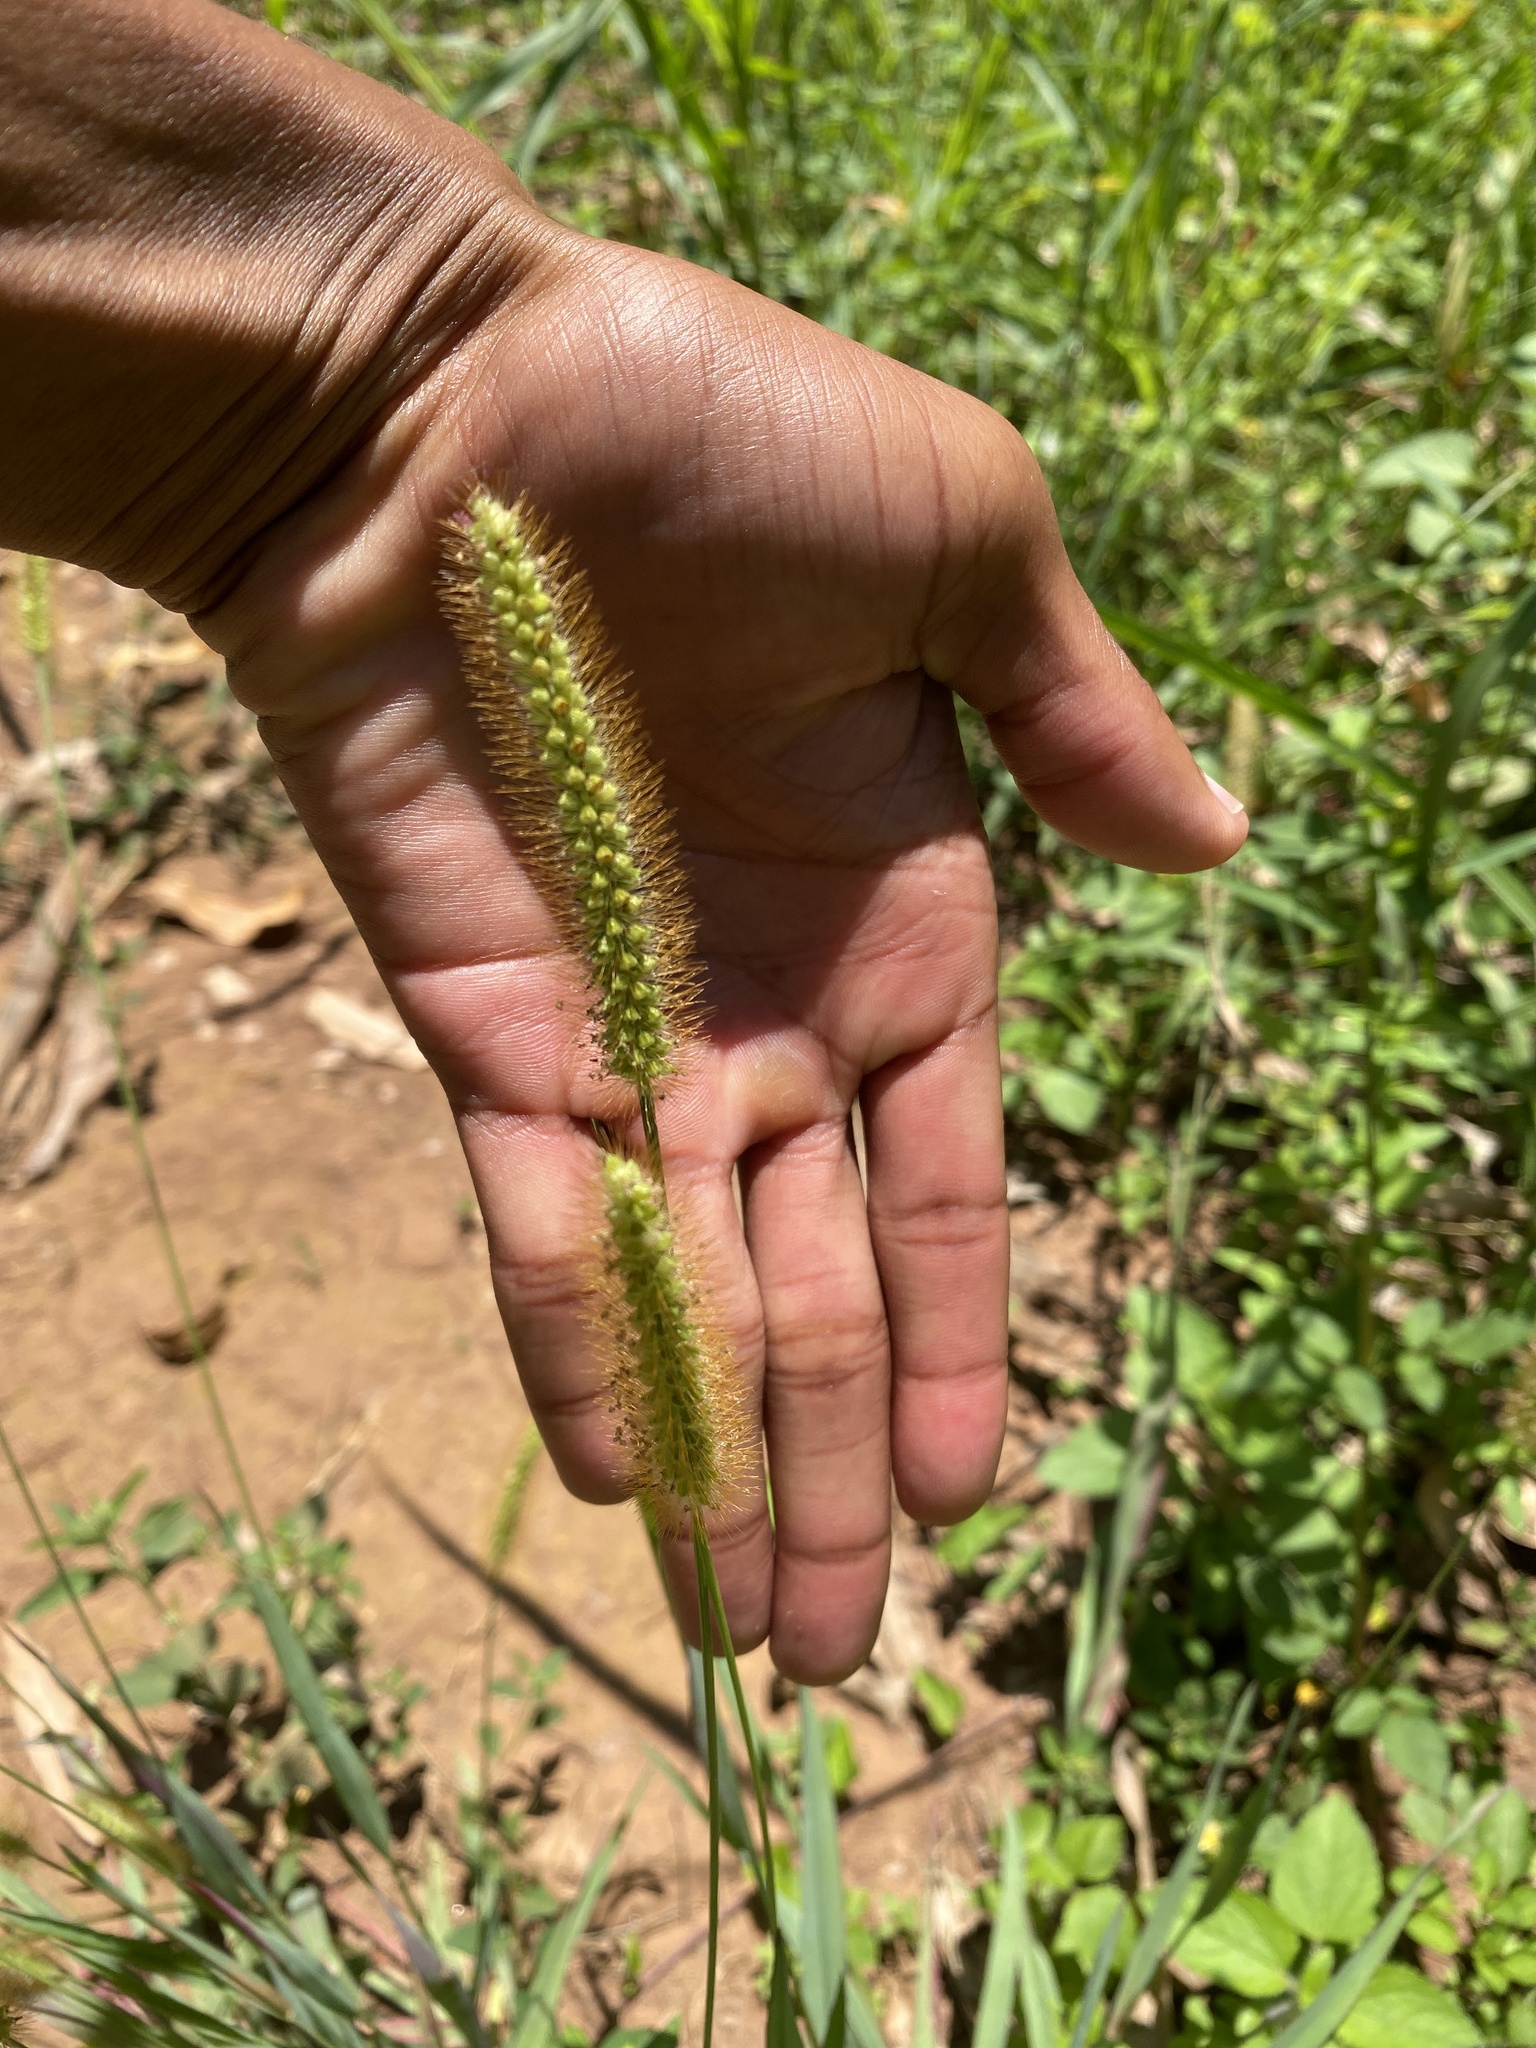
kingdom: Plantae
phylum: Tracheophyta
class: Liliopsida
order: Poales
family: Poaceae
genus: Setaria
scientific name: Setaria pumila
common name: Yellow bristle-grass
